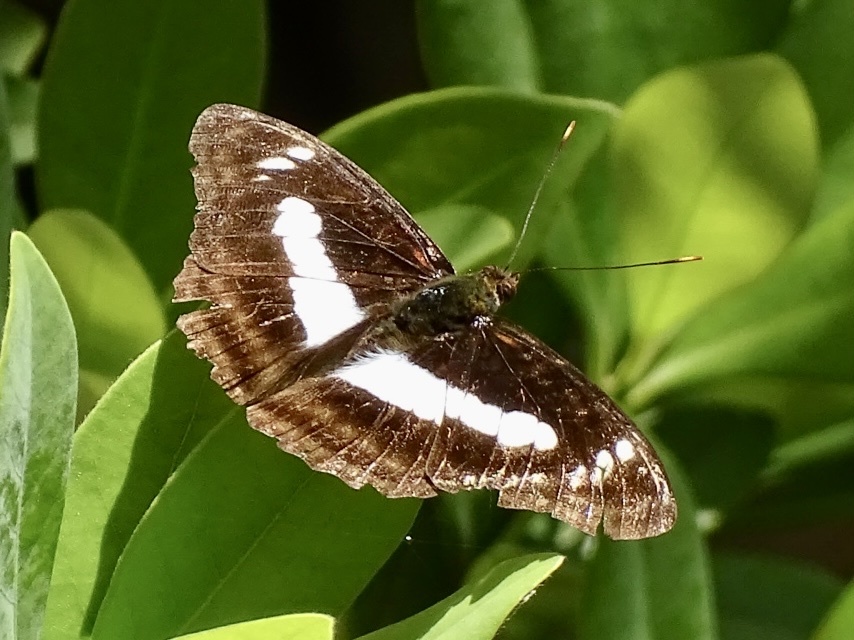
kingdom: Animalia
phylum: Arthropoda
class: Insecta
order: Lepidoptera
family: Nymphalidae
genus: Parathyma
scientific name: Parathyma selenophora
